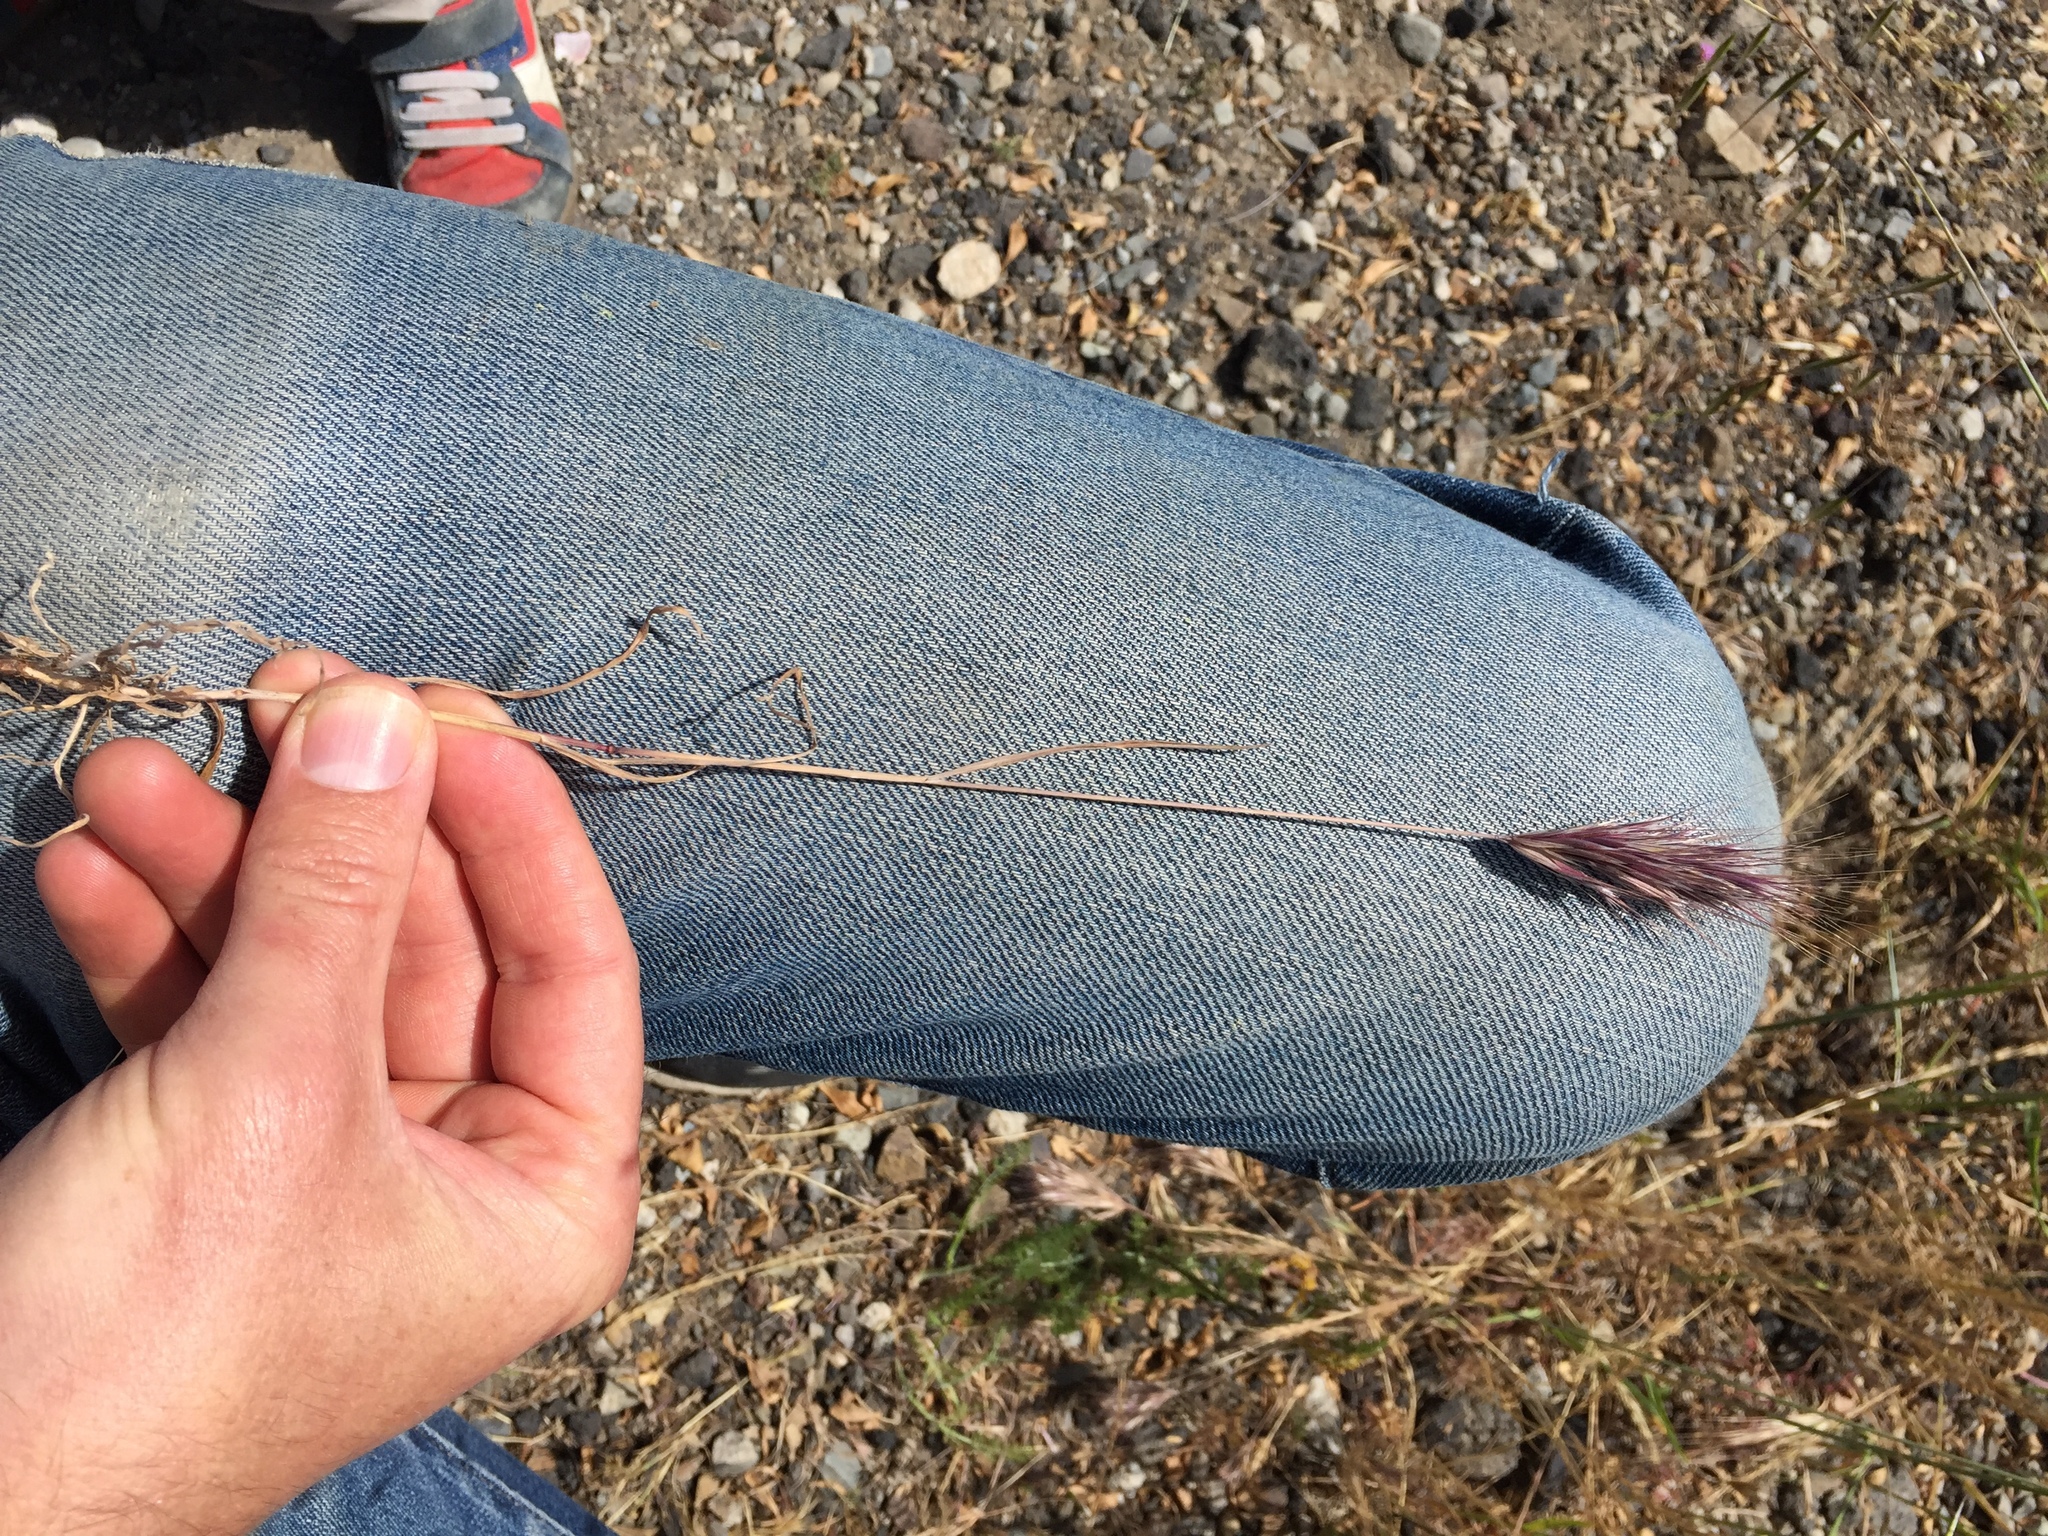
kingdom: Plantae
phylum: Tracheophyta
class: Liliopsida
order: Poales
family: Poaceae
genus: Bromus
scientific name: Bromus rubens
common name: Red brome
